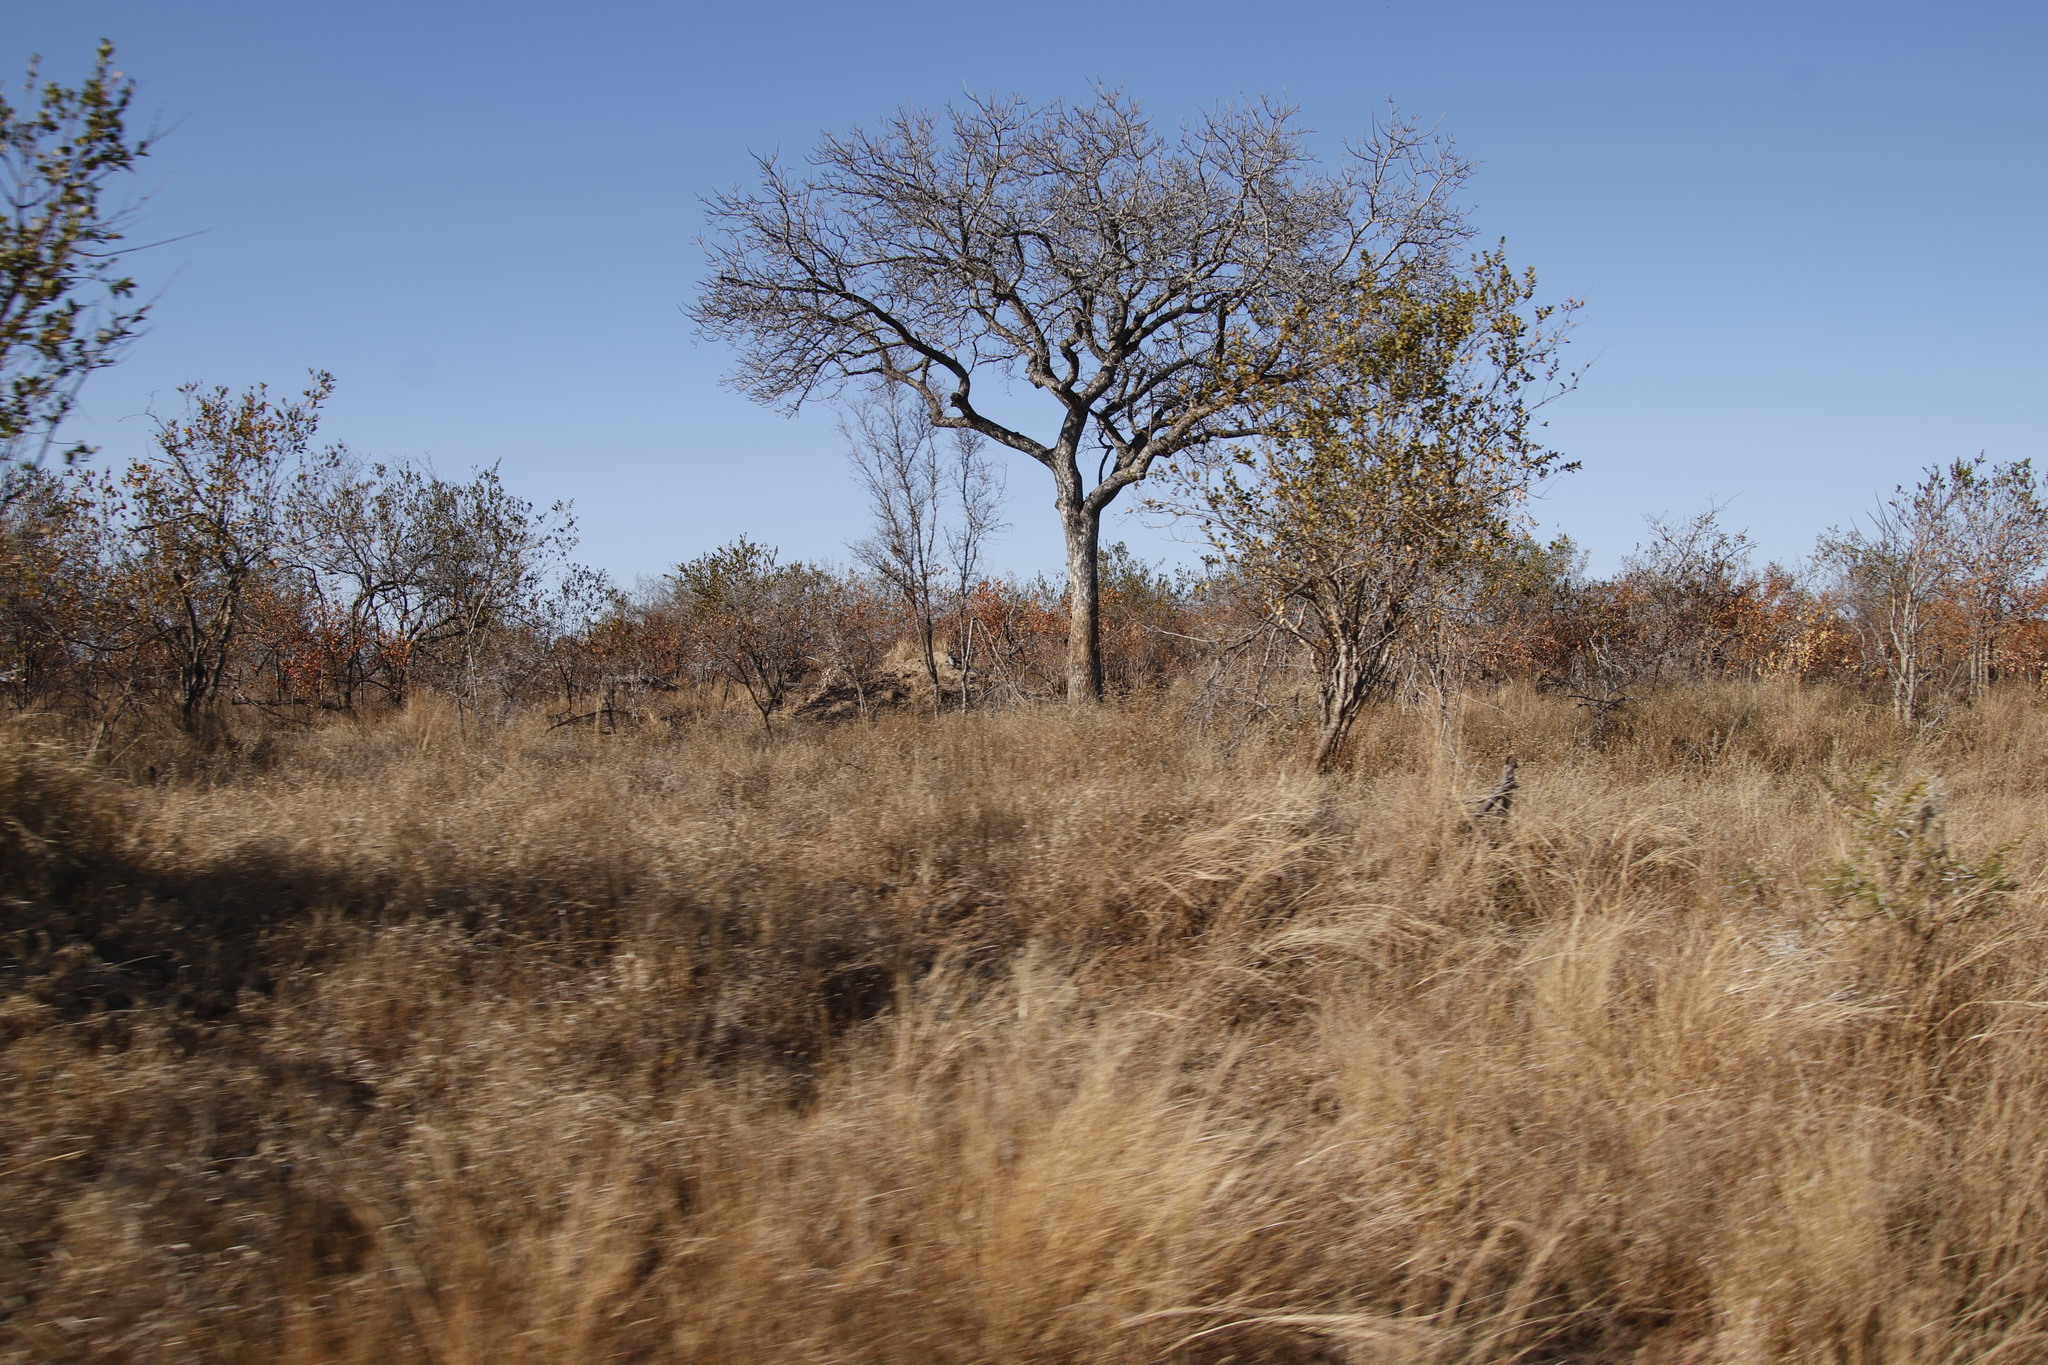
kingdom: Plantae
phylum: Tracheophyta
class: Magnoliopsida
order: Sapindales
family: Anacardiaceae
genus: Sclerocarya
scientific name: Sclerocarya birrea
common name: Marula
